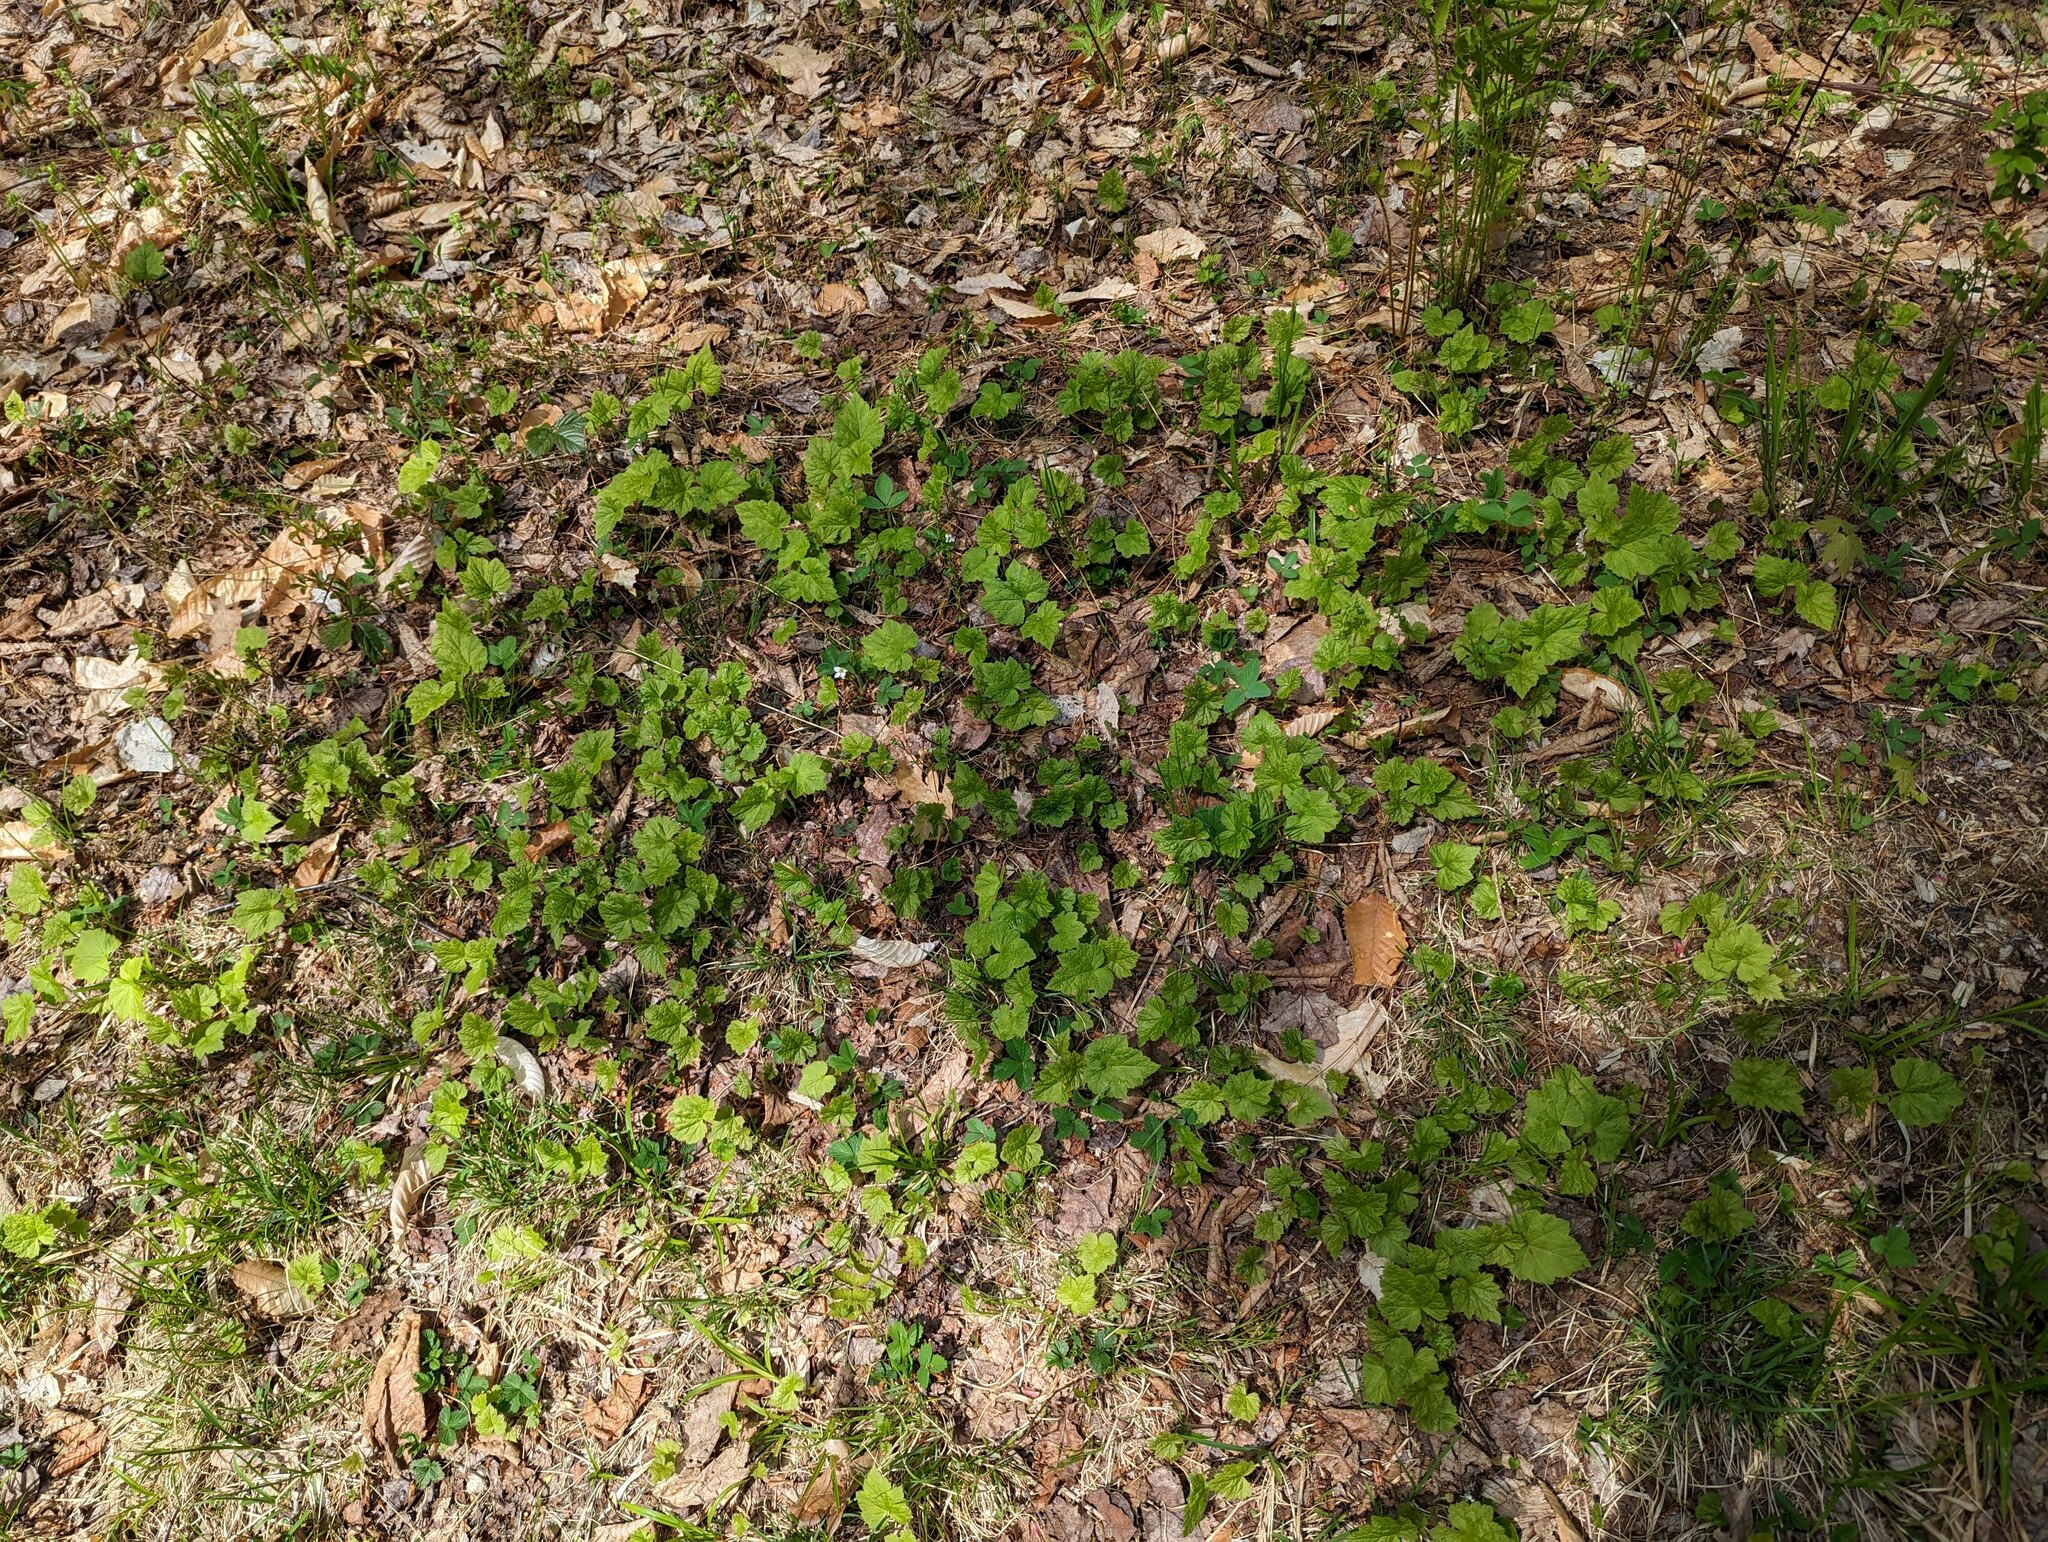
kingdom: Plantae
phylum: Tracheophyta
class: Magnoliopsida
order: Saxifragales
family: Saxifragaceae
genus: Tiarella
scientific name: Tiarella stolonifera
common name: Stoloniferous foamflower
